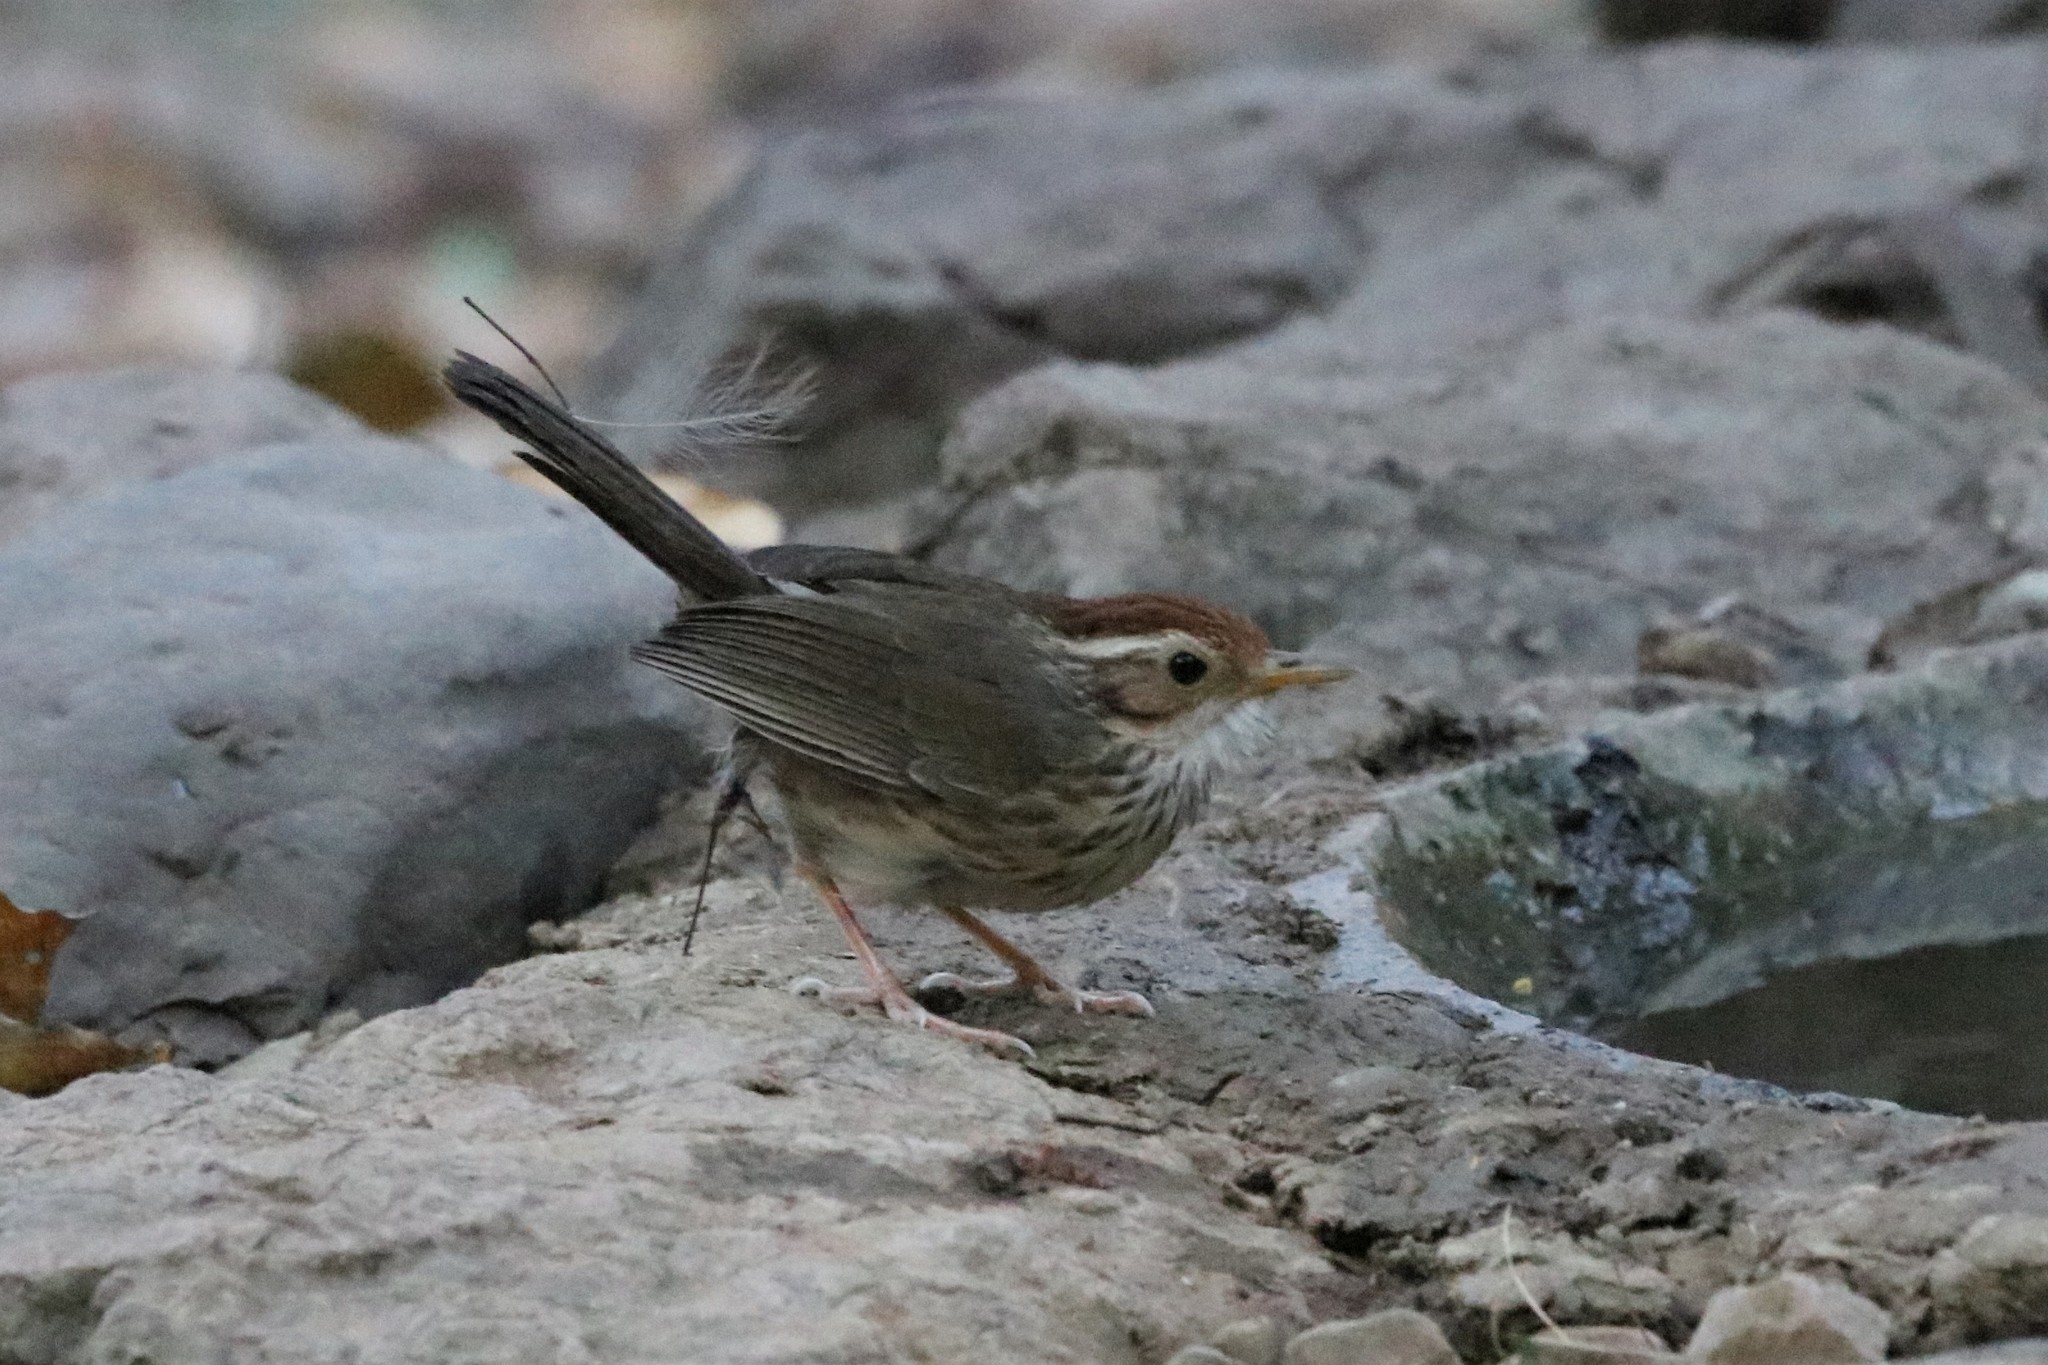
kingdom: Animalia
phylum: Chordata
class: Aves
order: Passeriformes
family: Pellorneidae
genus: Pellorneum
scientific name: Pellorneum ruficeps
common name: Puff-throated babbler
